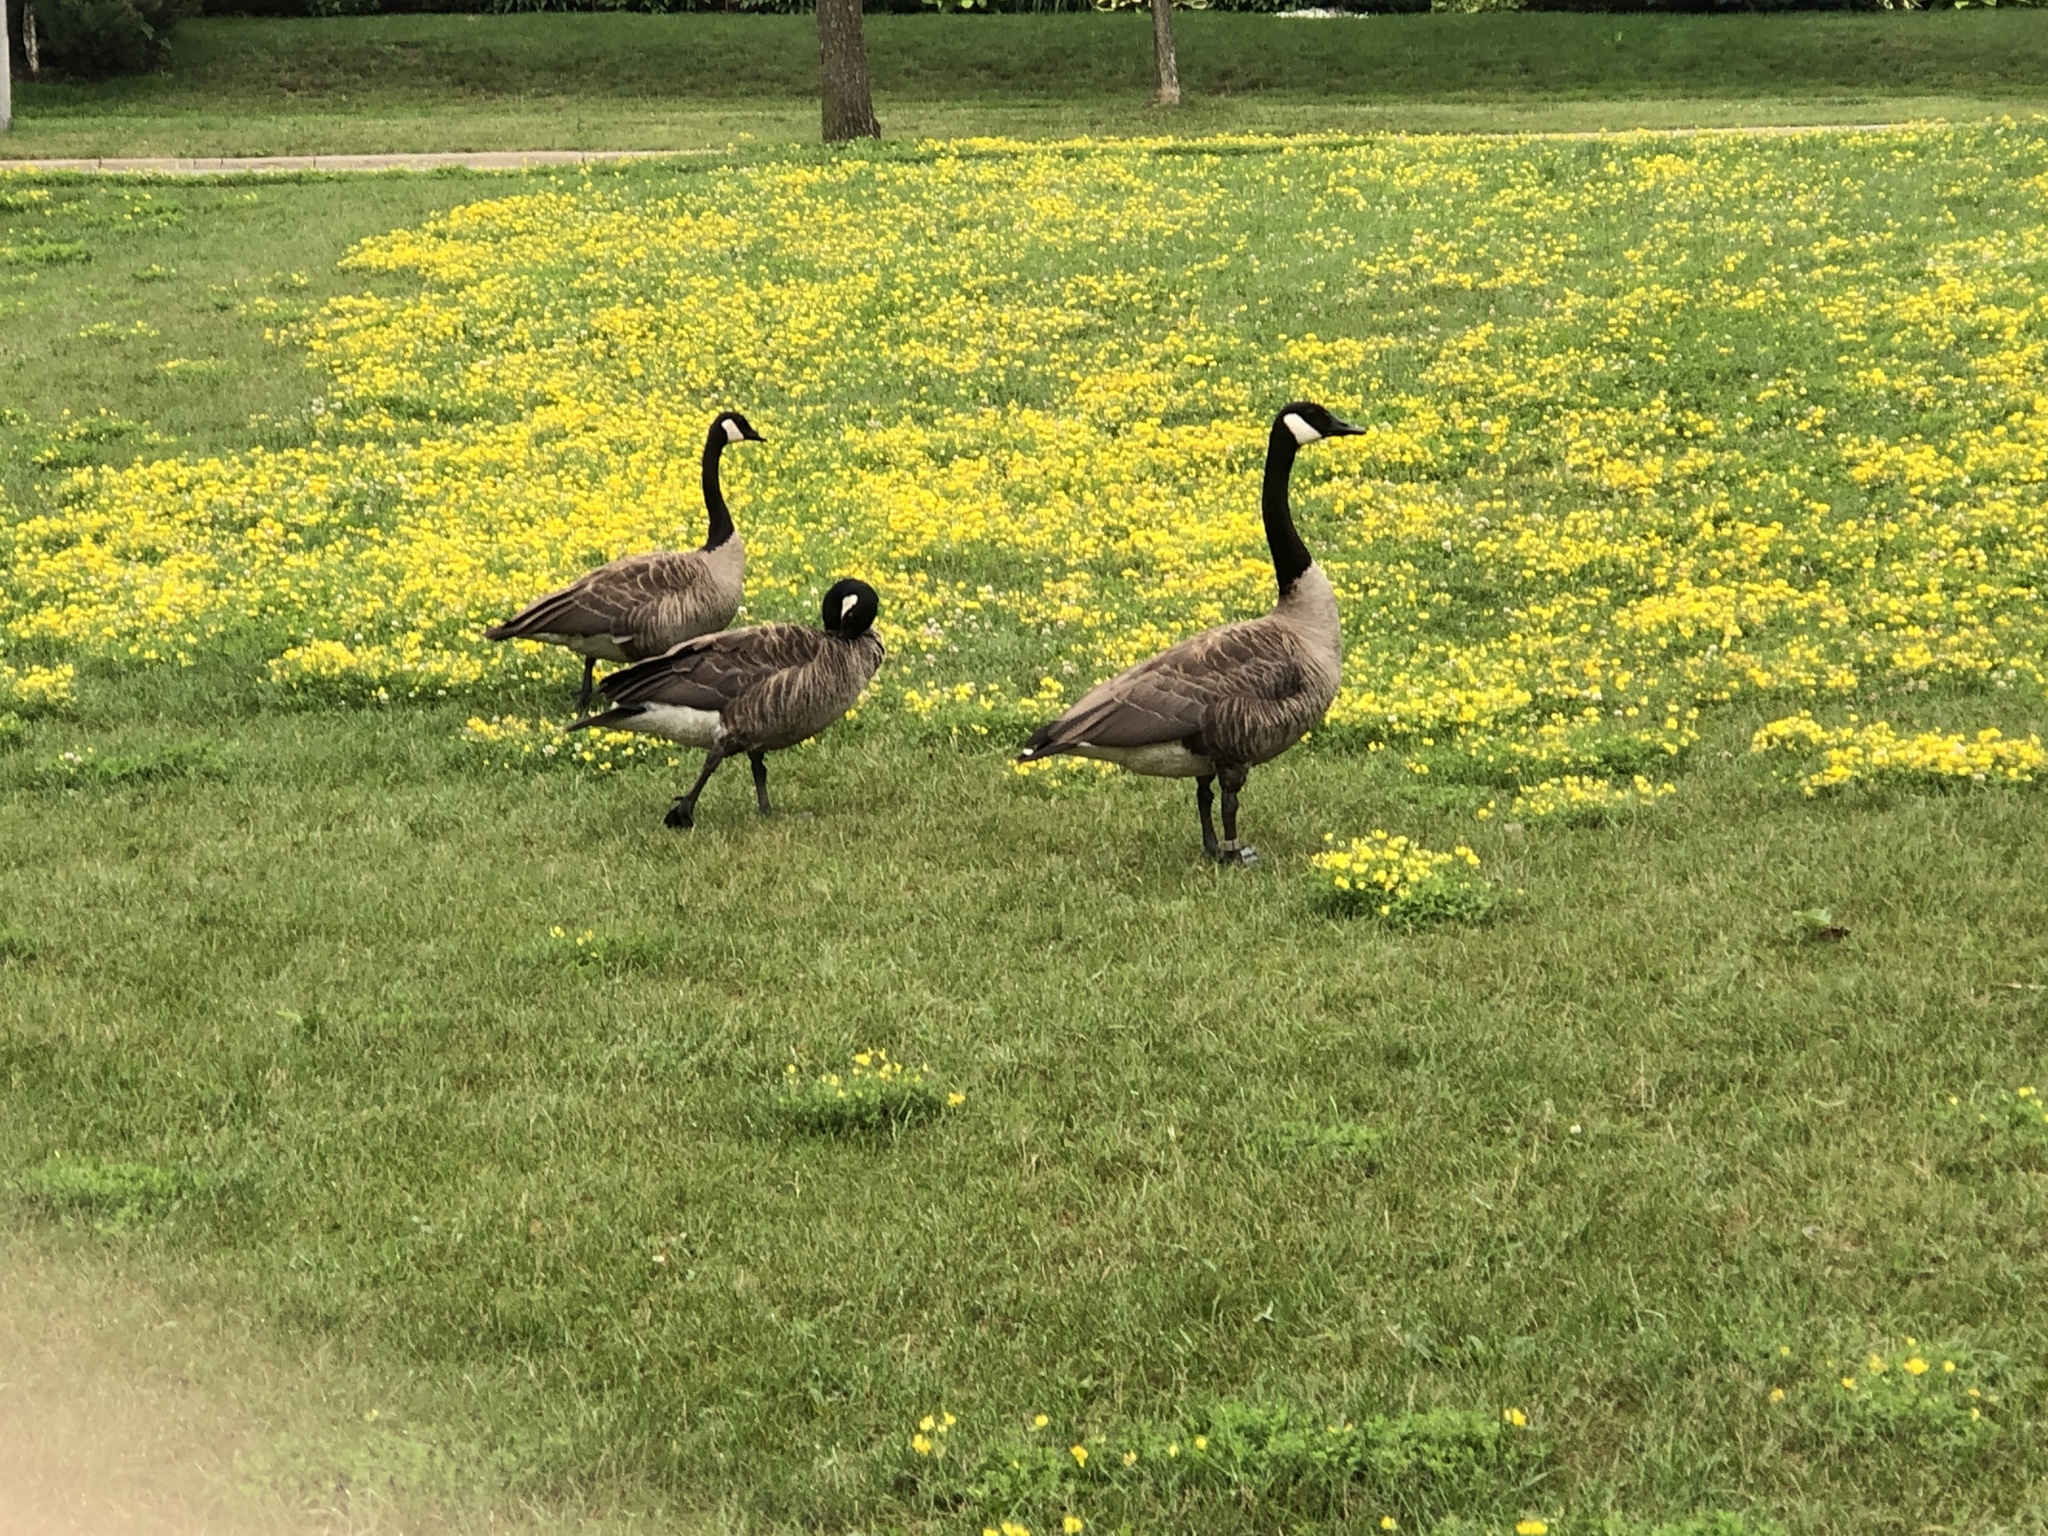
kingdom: Animalia
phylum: Chordata
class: Aves
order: Anseriformes
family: Anatidae
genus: Branta
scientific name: Branta canadensis
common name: Canada goose
